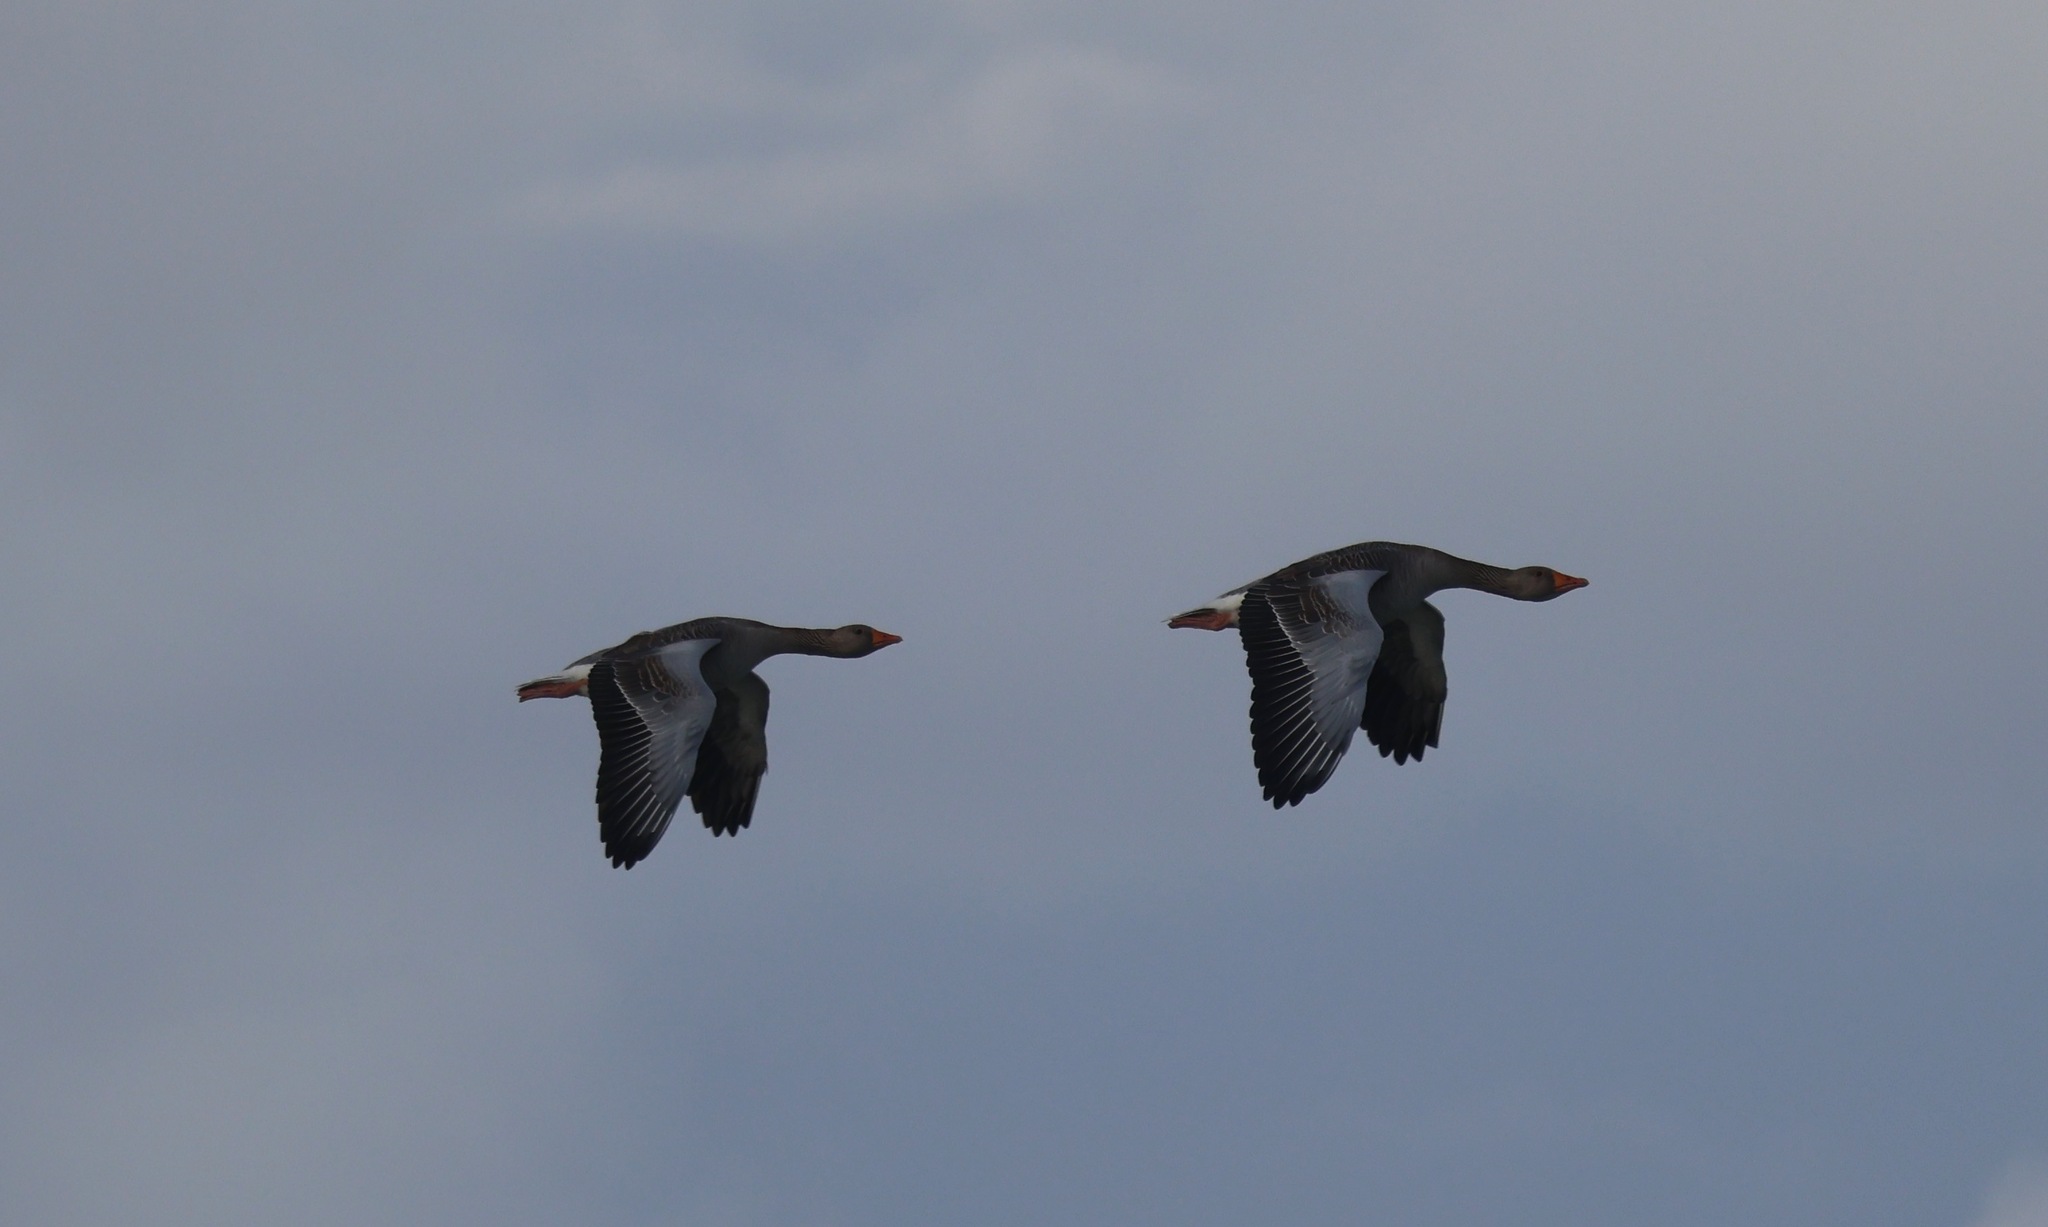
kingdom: Animalia
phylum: Chordata
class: Aves
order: Anseriformes
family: Anatidae
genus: Anser
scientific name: Anser anser
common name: Greylag goose
